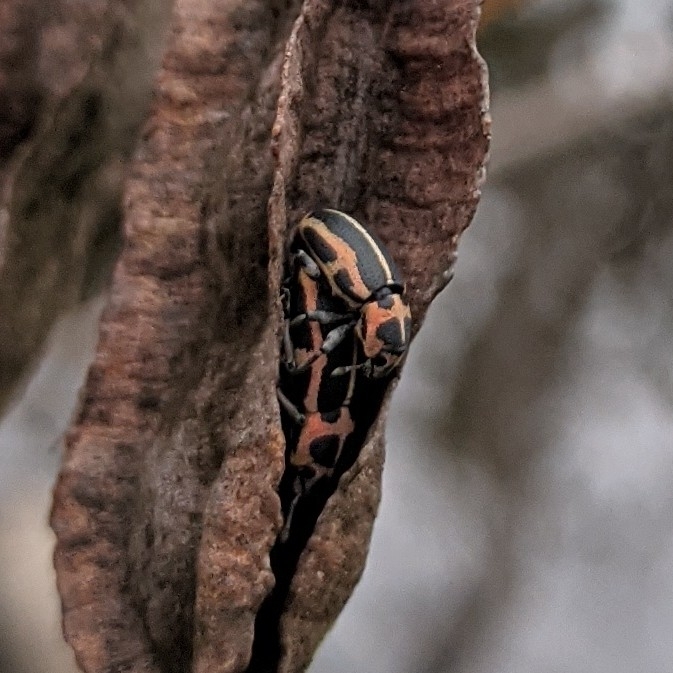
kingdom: Animalia
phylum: Arthropoda
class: Insecta
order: Coleoptera
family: Curculionidae
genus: Eudiagogus
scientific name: Eudiagogus pulcher
